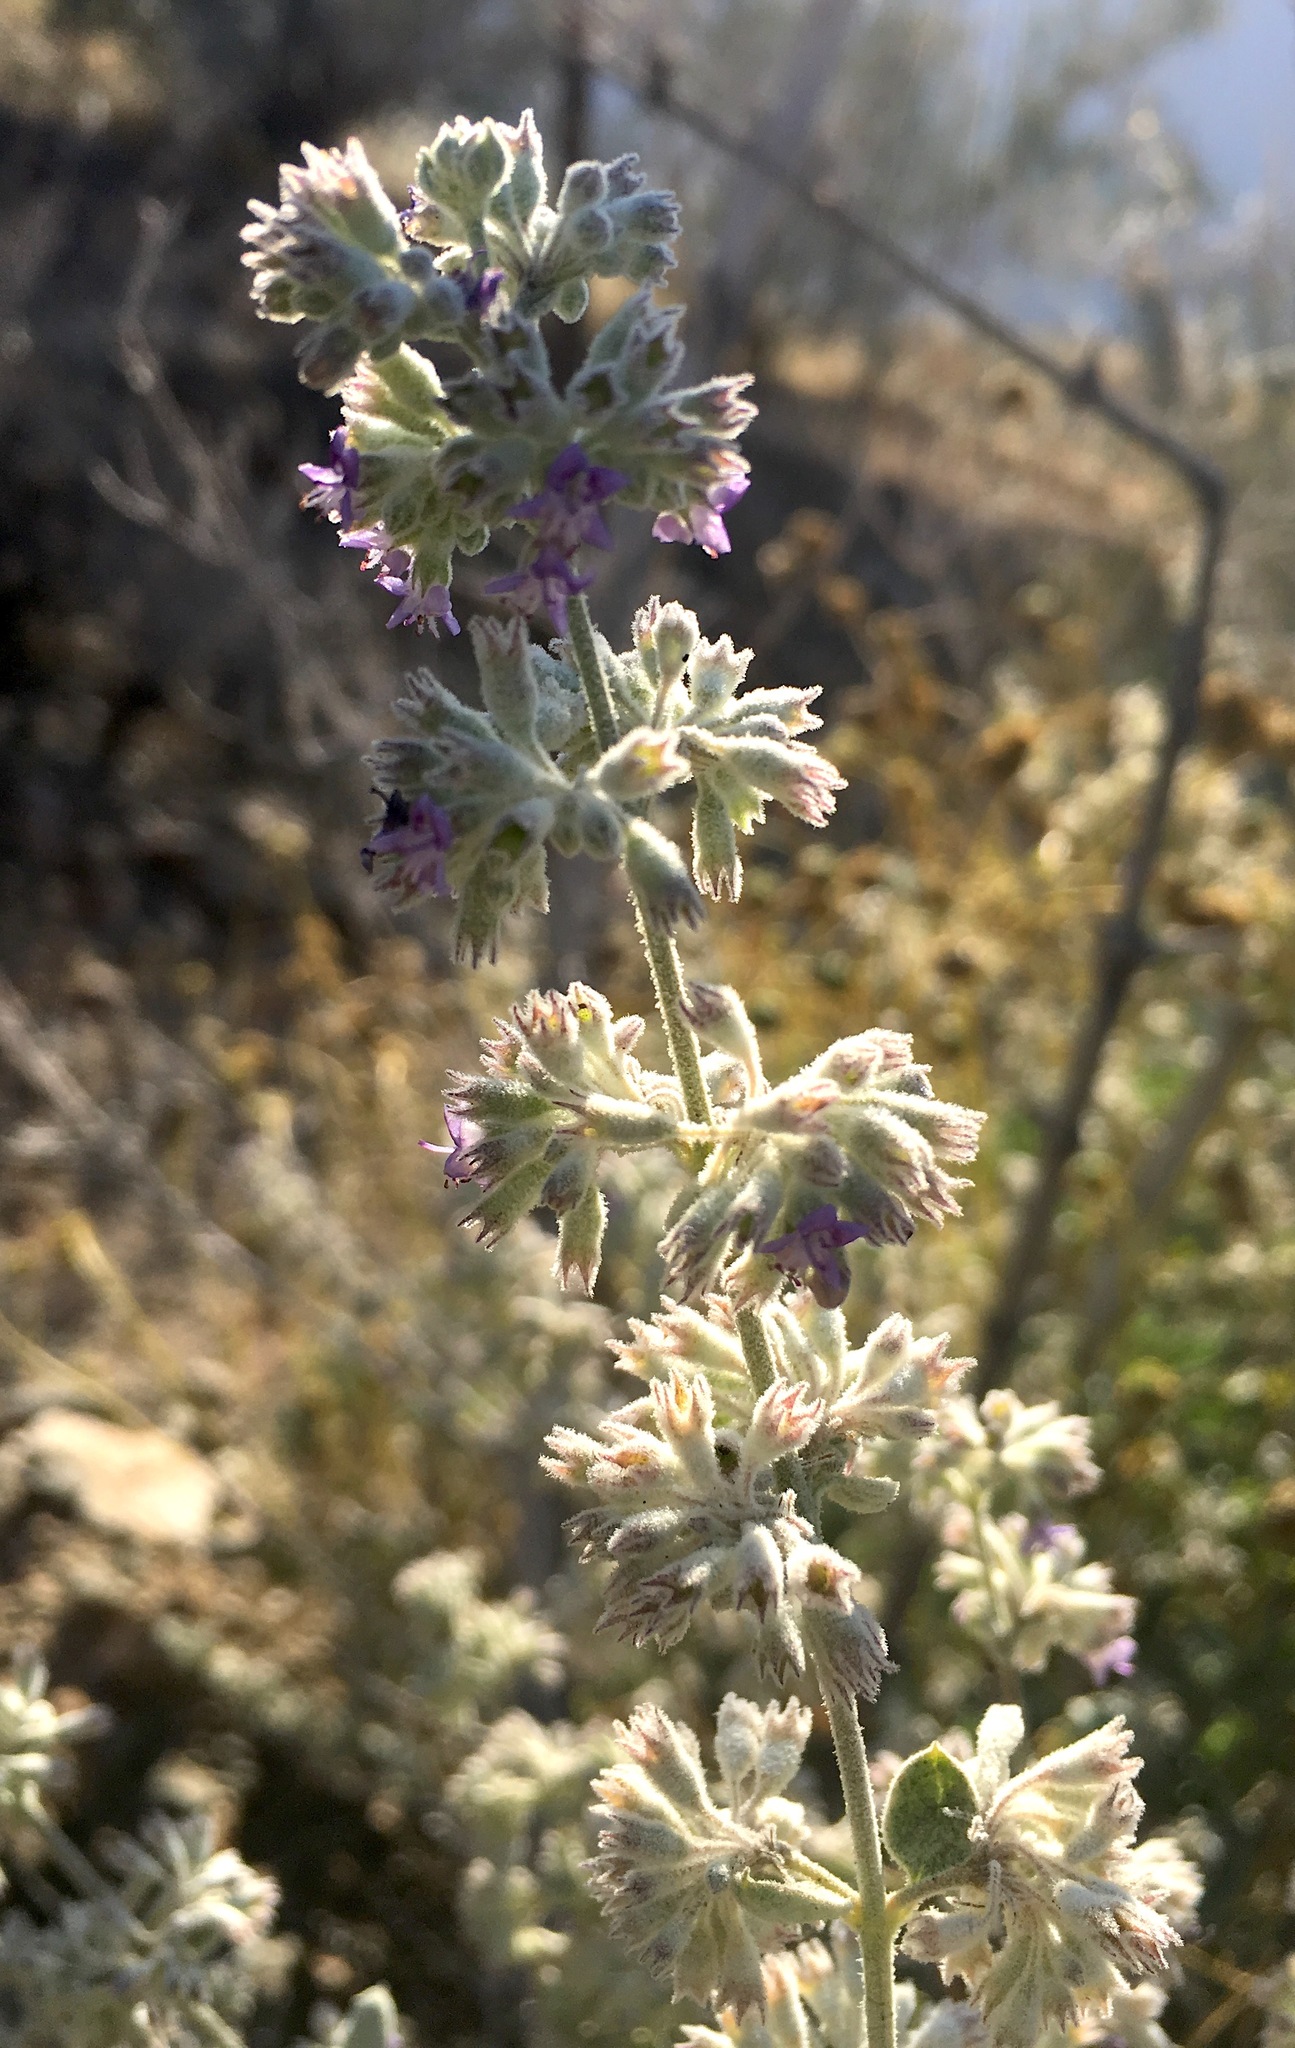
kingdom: Plantae
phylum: Tracheophyta
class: Magnoliopsida
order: Lamiales
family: Lamiaceae
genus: Condea
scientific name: Condea emoryi
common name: Chia
